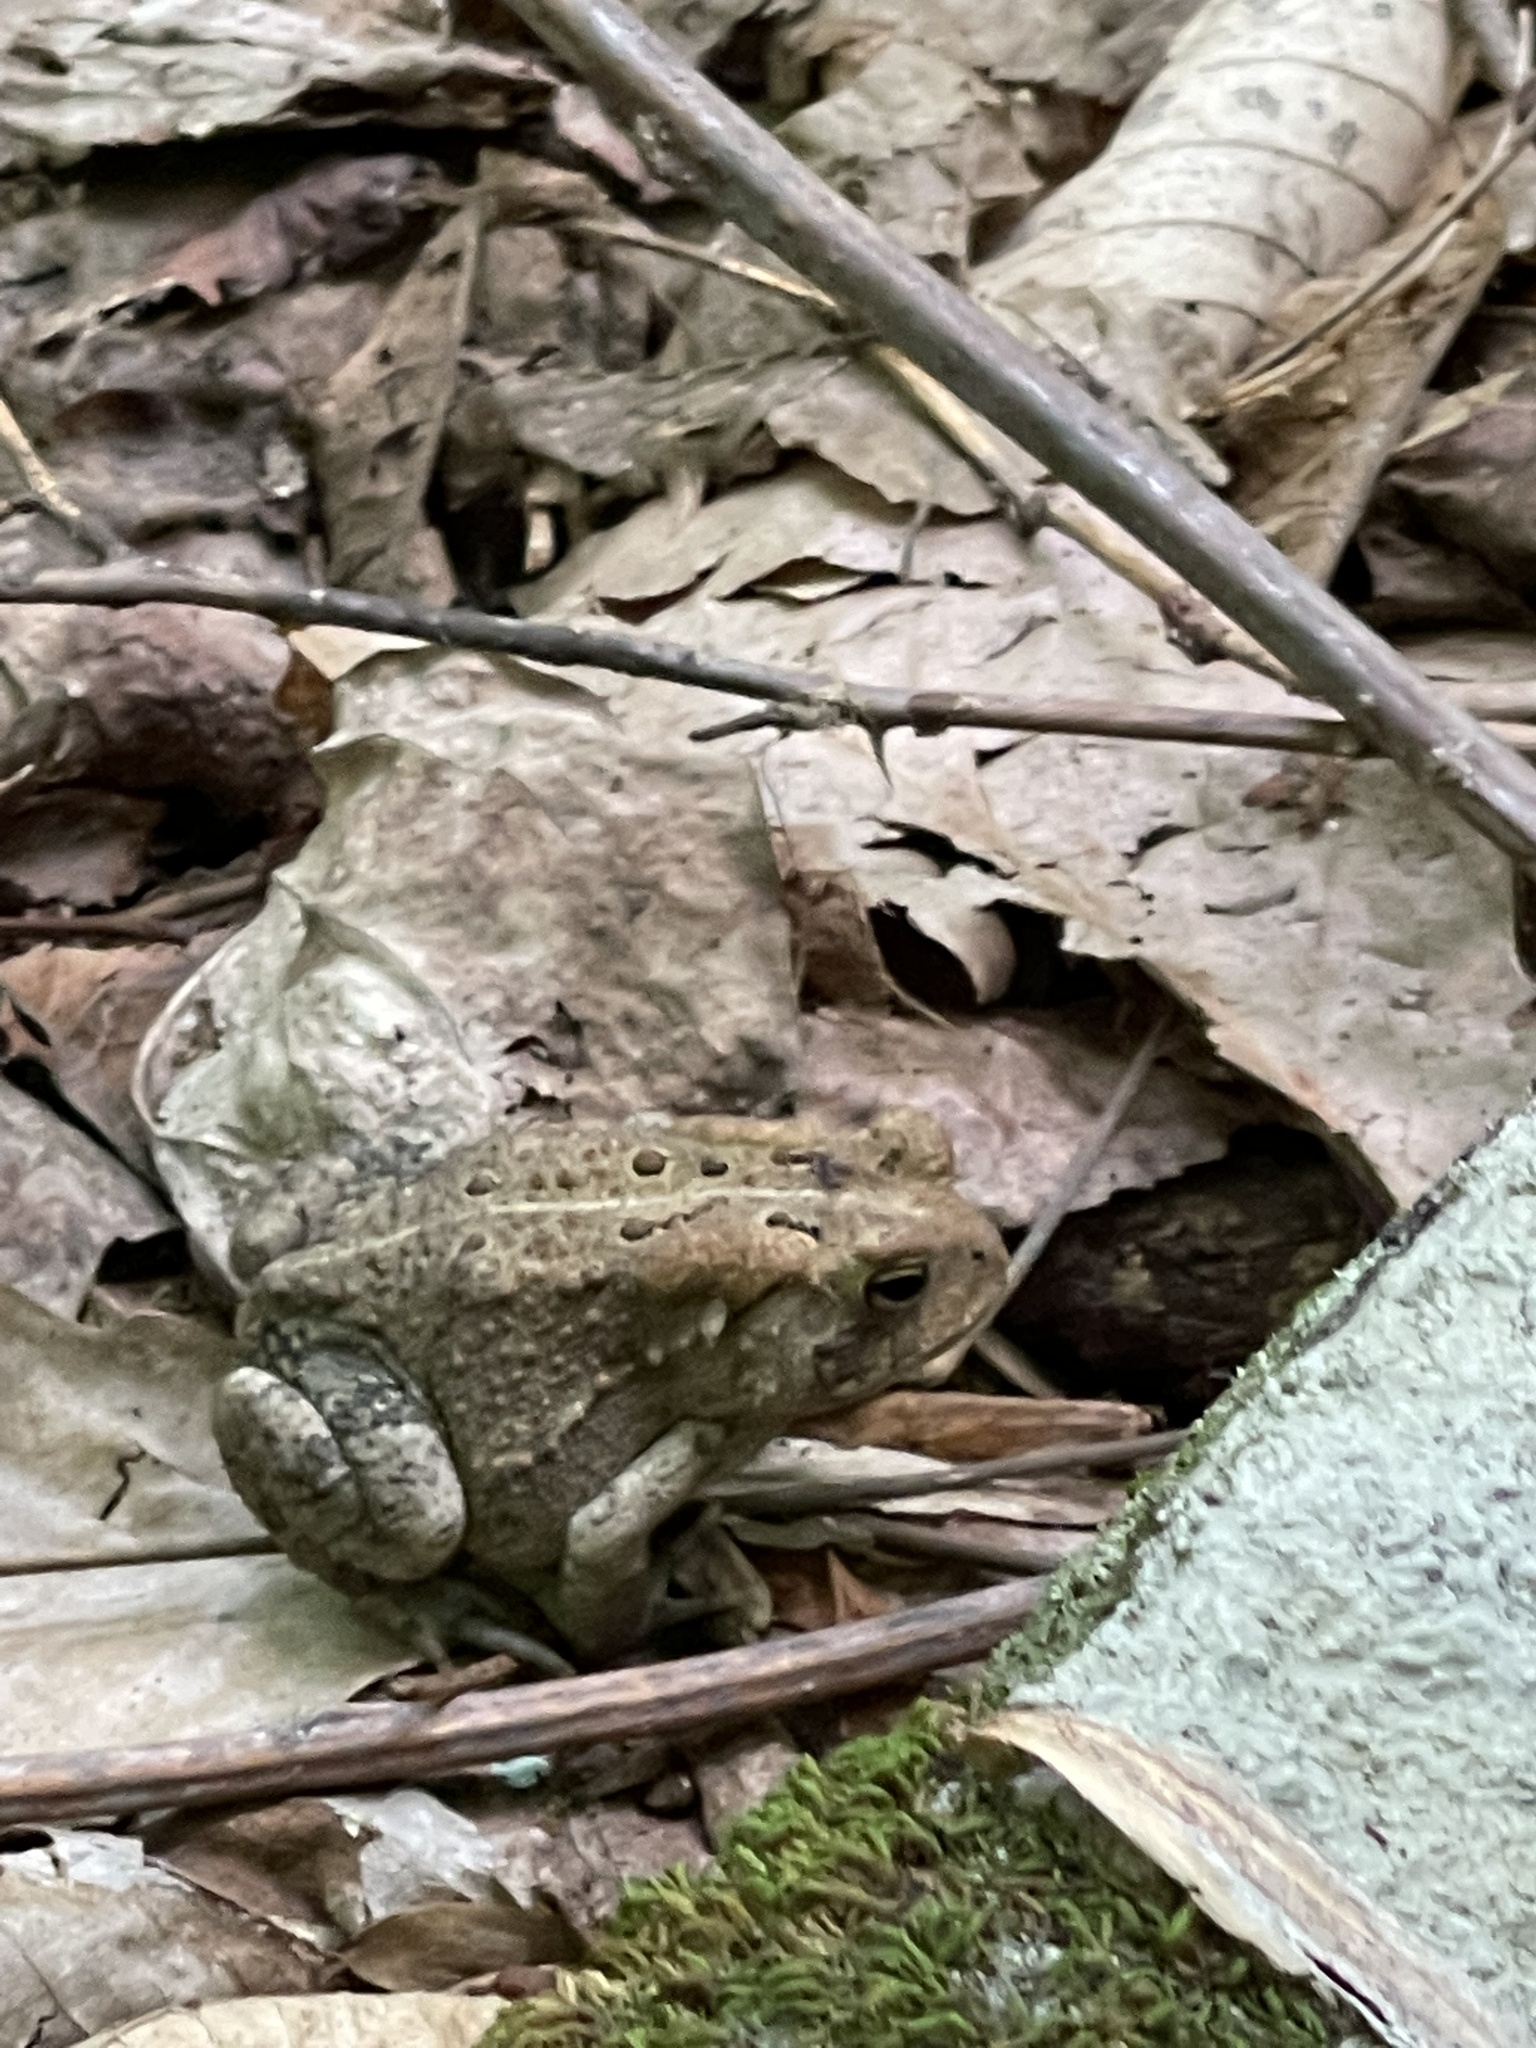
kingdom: Animalia
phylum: Chordata
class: Amphibia
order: Anura
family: Bufonidae
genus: Anaxyrus
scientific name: Anaxyrus americanus
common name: American toad
